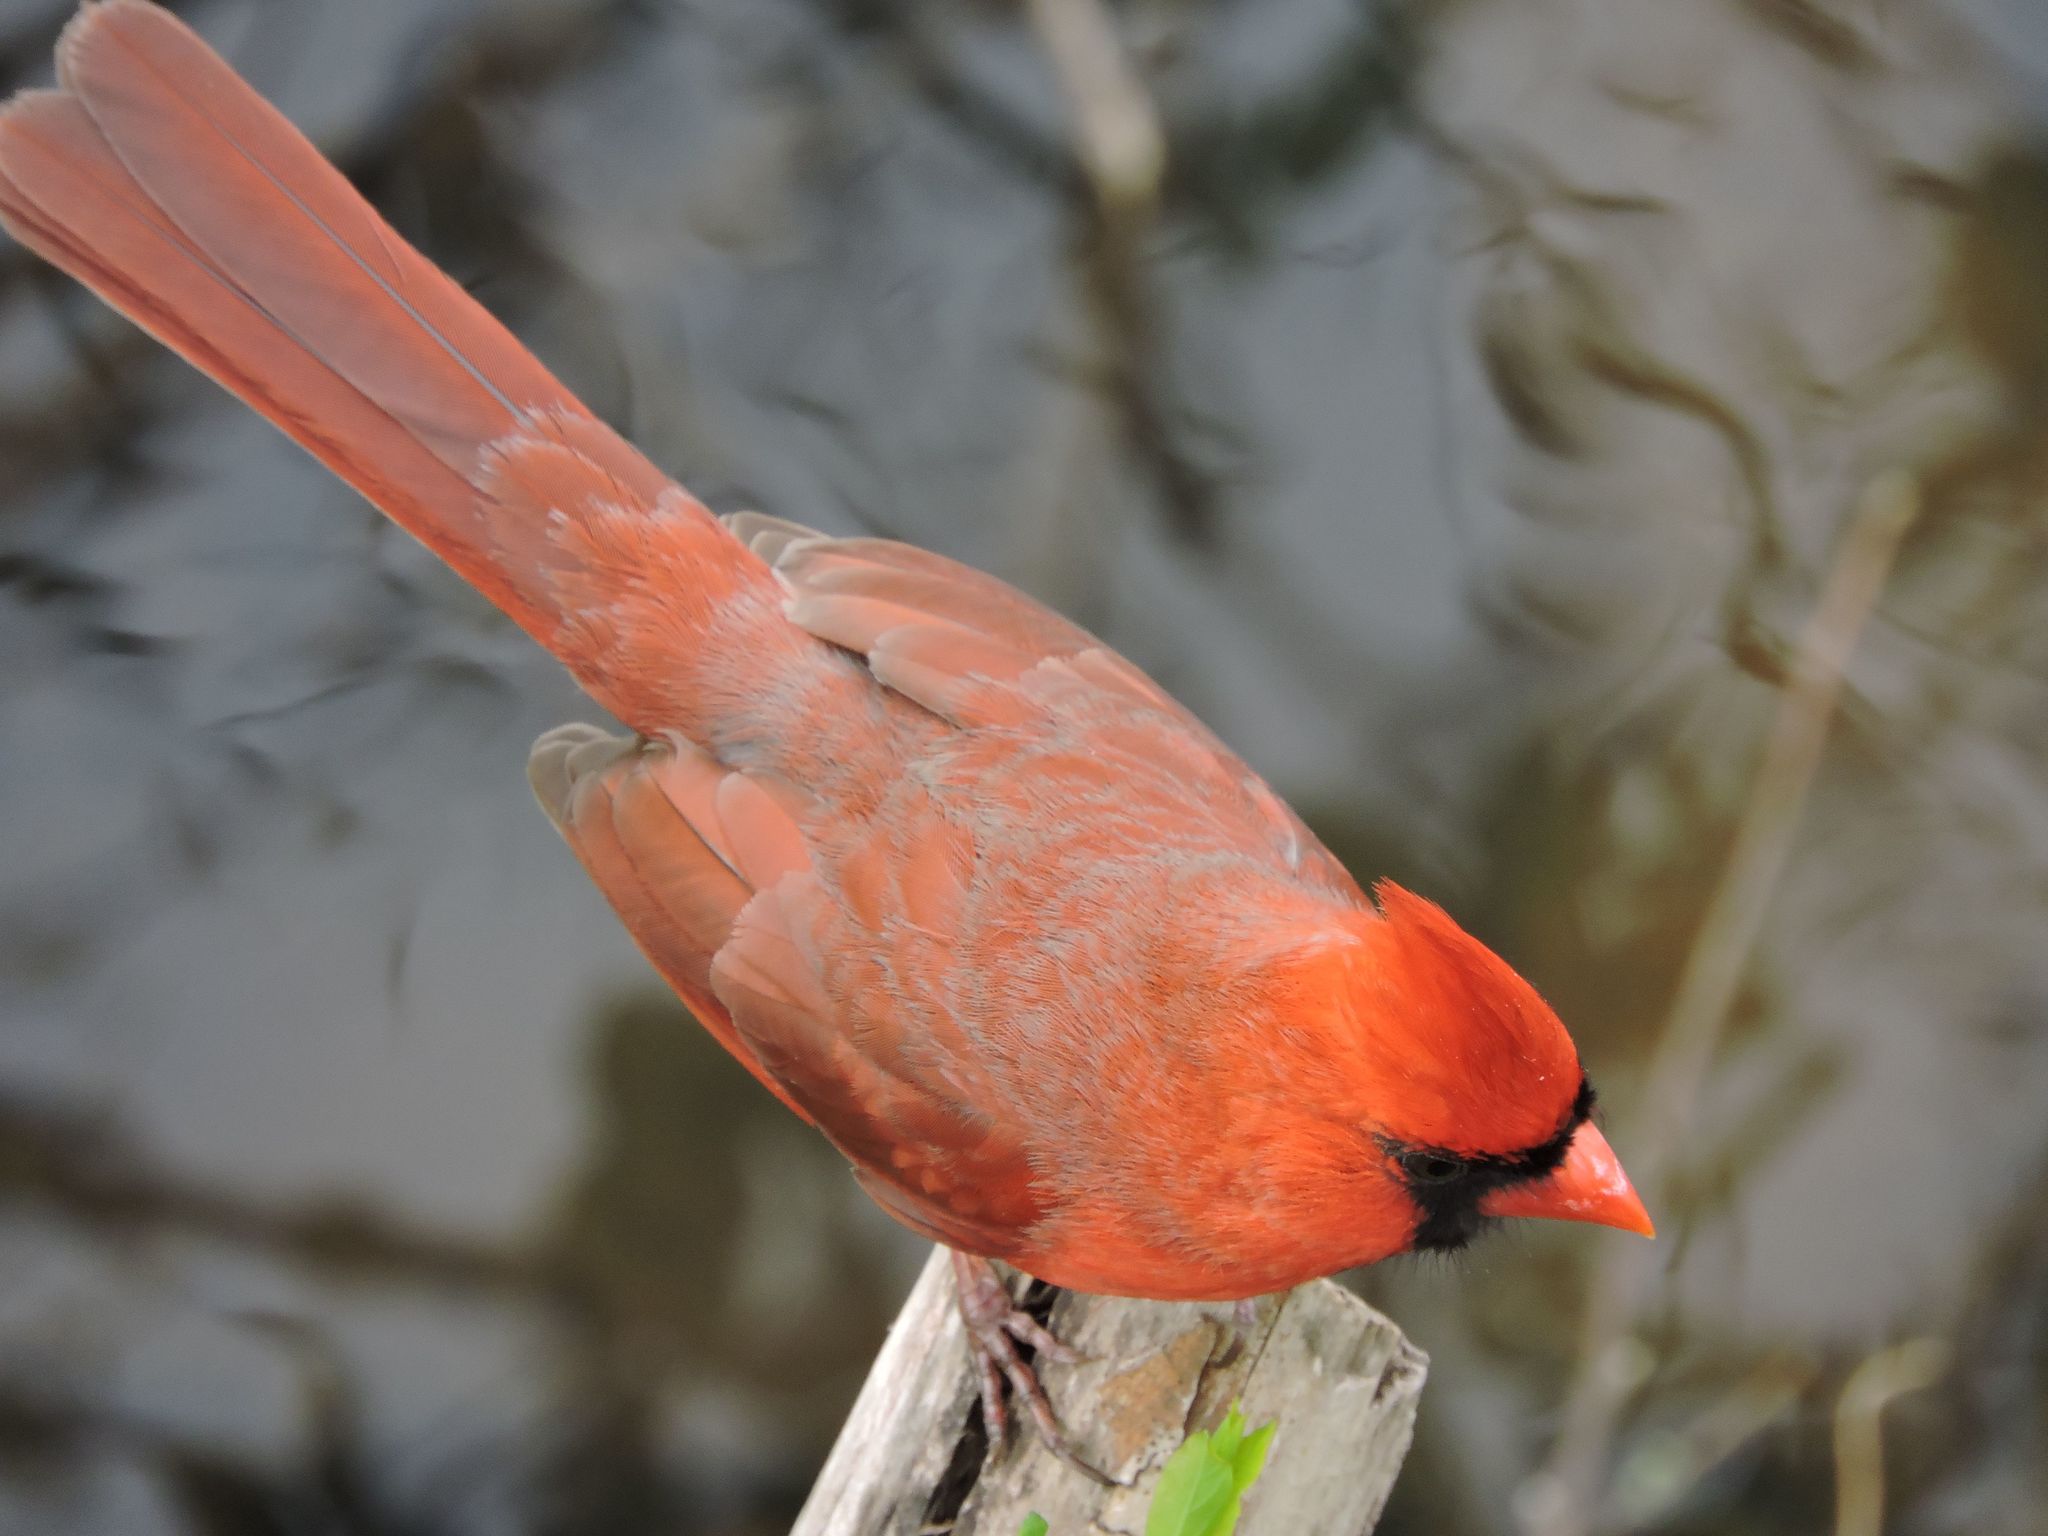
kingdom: Animalia
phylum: Chordata
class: Aves
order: Passeriformes
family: Cardinalidae
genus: Cardinalis
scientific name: Cardinalis cardinalis
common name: Northern cardinal
